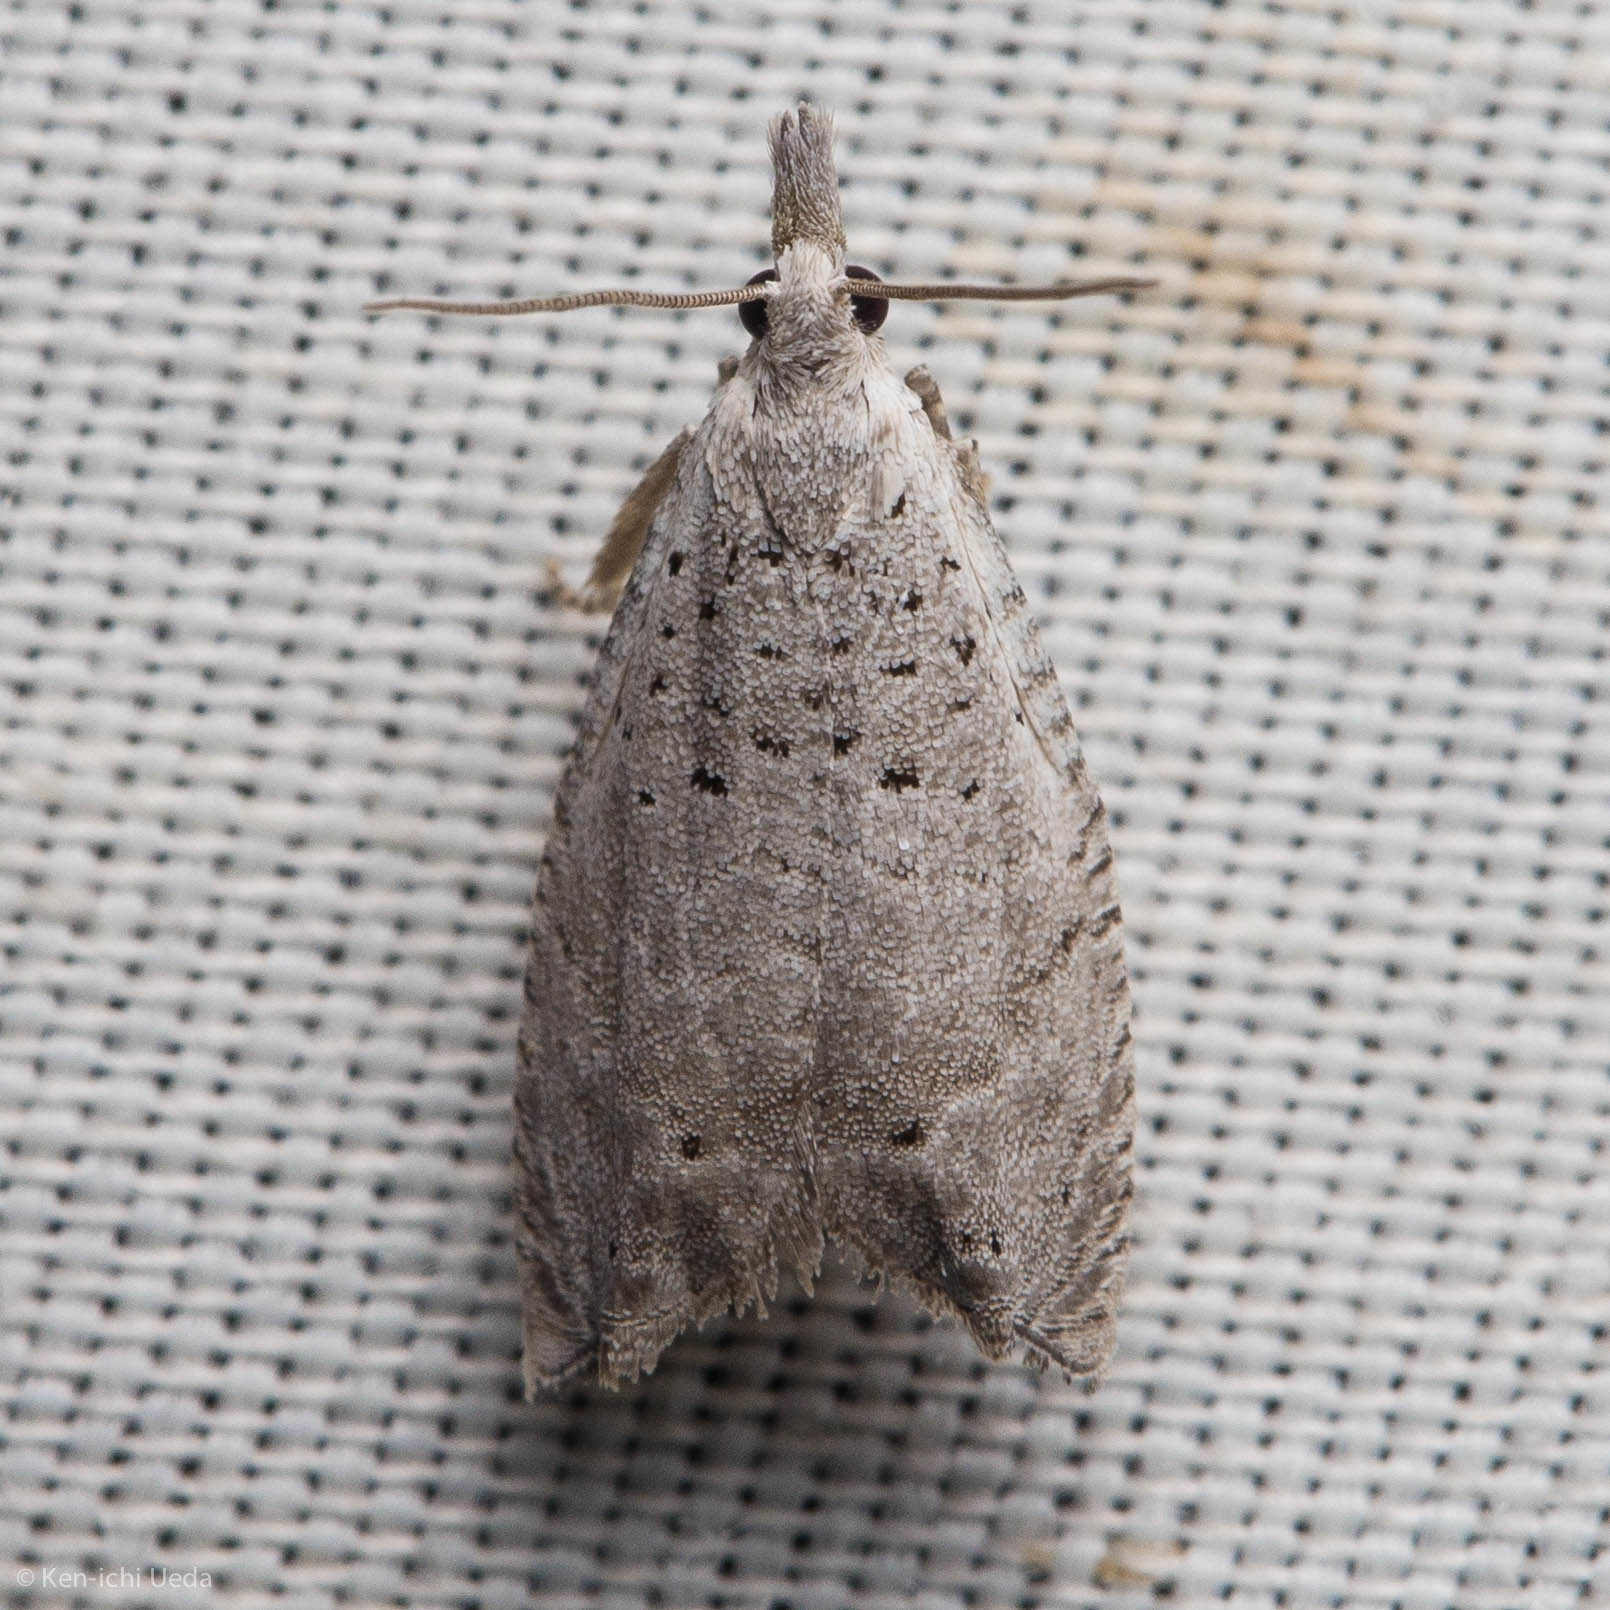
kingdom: Animalia
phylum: Arthropoda
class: Insecta
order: Lepidoptera
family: Tortricidae
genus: Epinotia
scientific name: Epinotia subplicana
